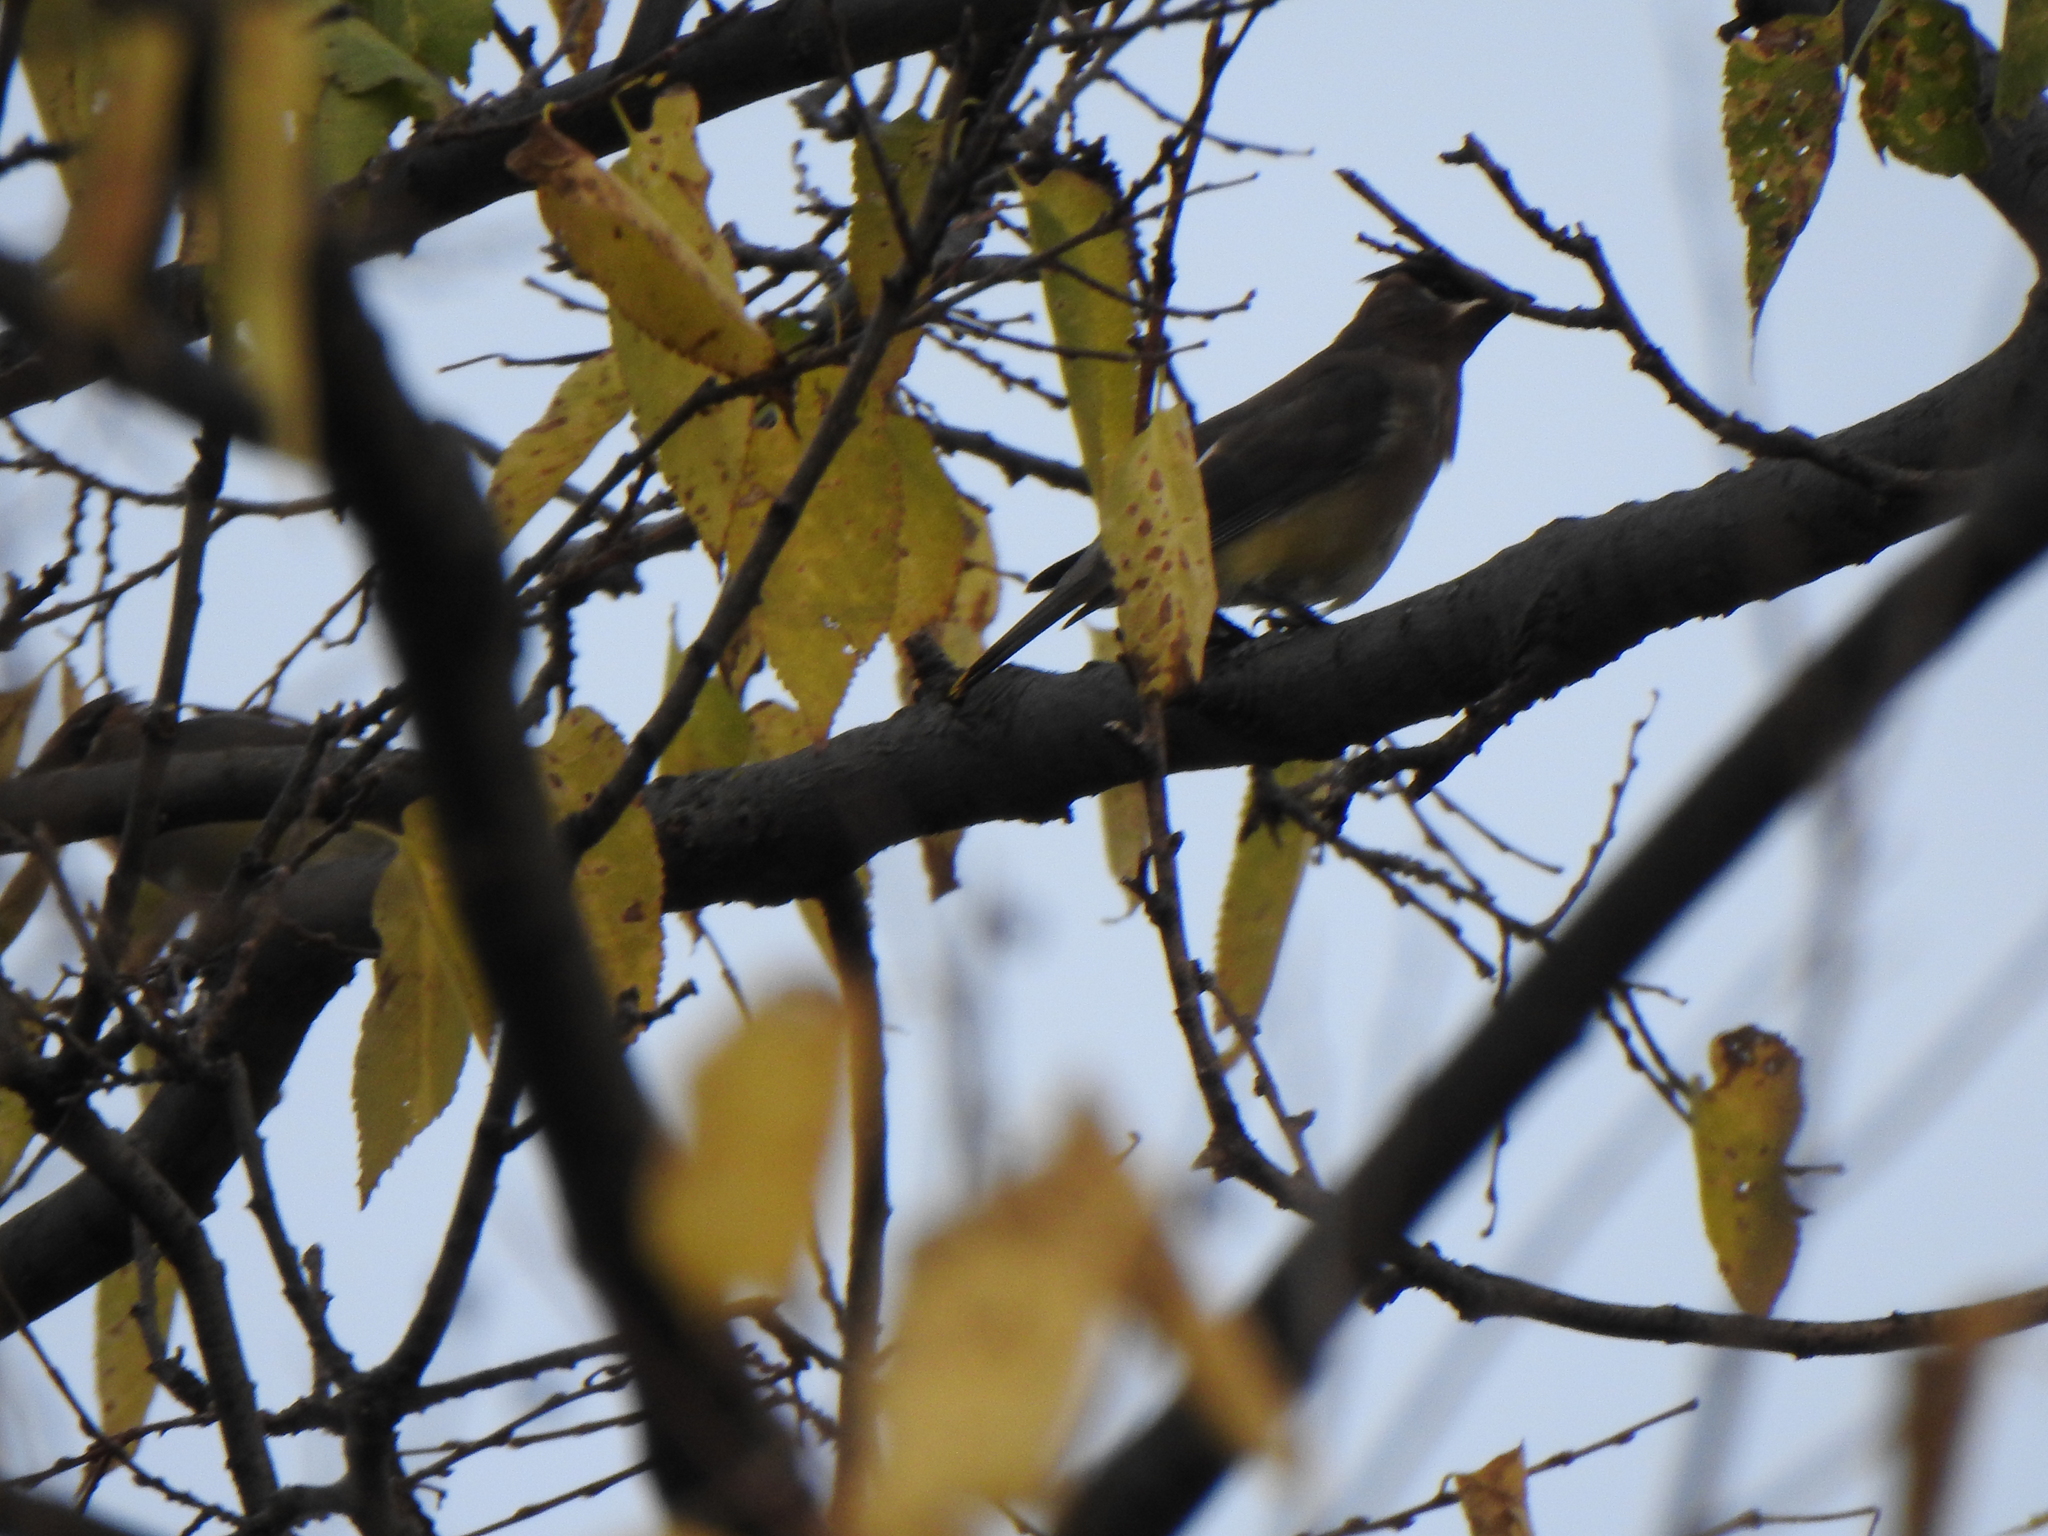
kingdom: Animalia
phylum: Chordata
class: Aves
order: Passeriformes
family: Bombycillidae
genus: Bombycilla
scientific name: Bombycilla cedrorum
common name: Cedar waxwing
